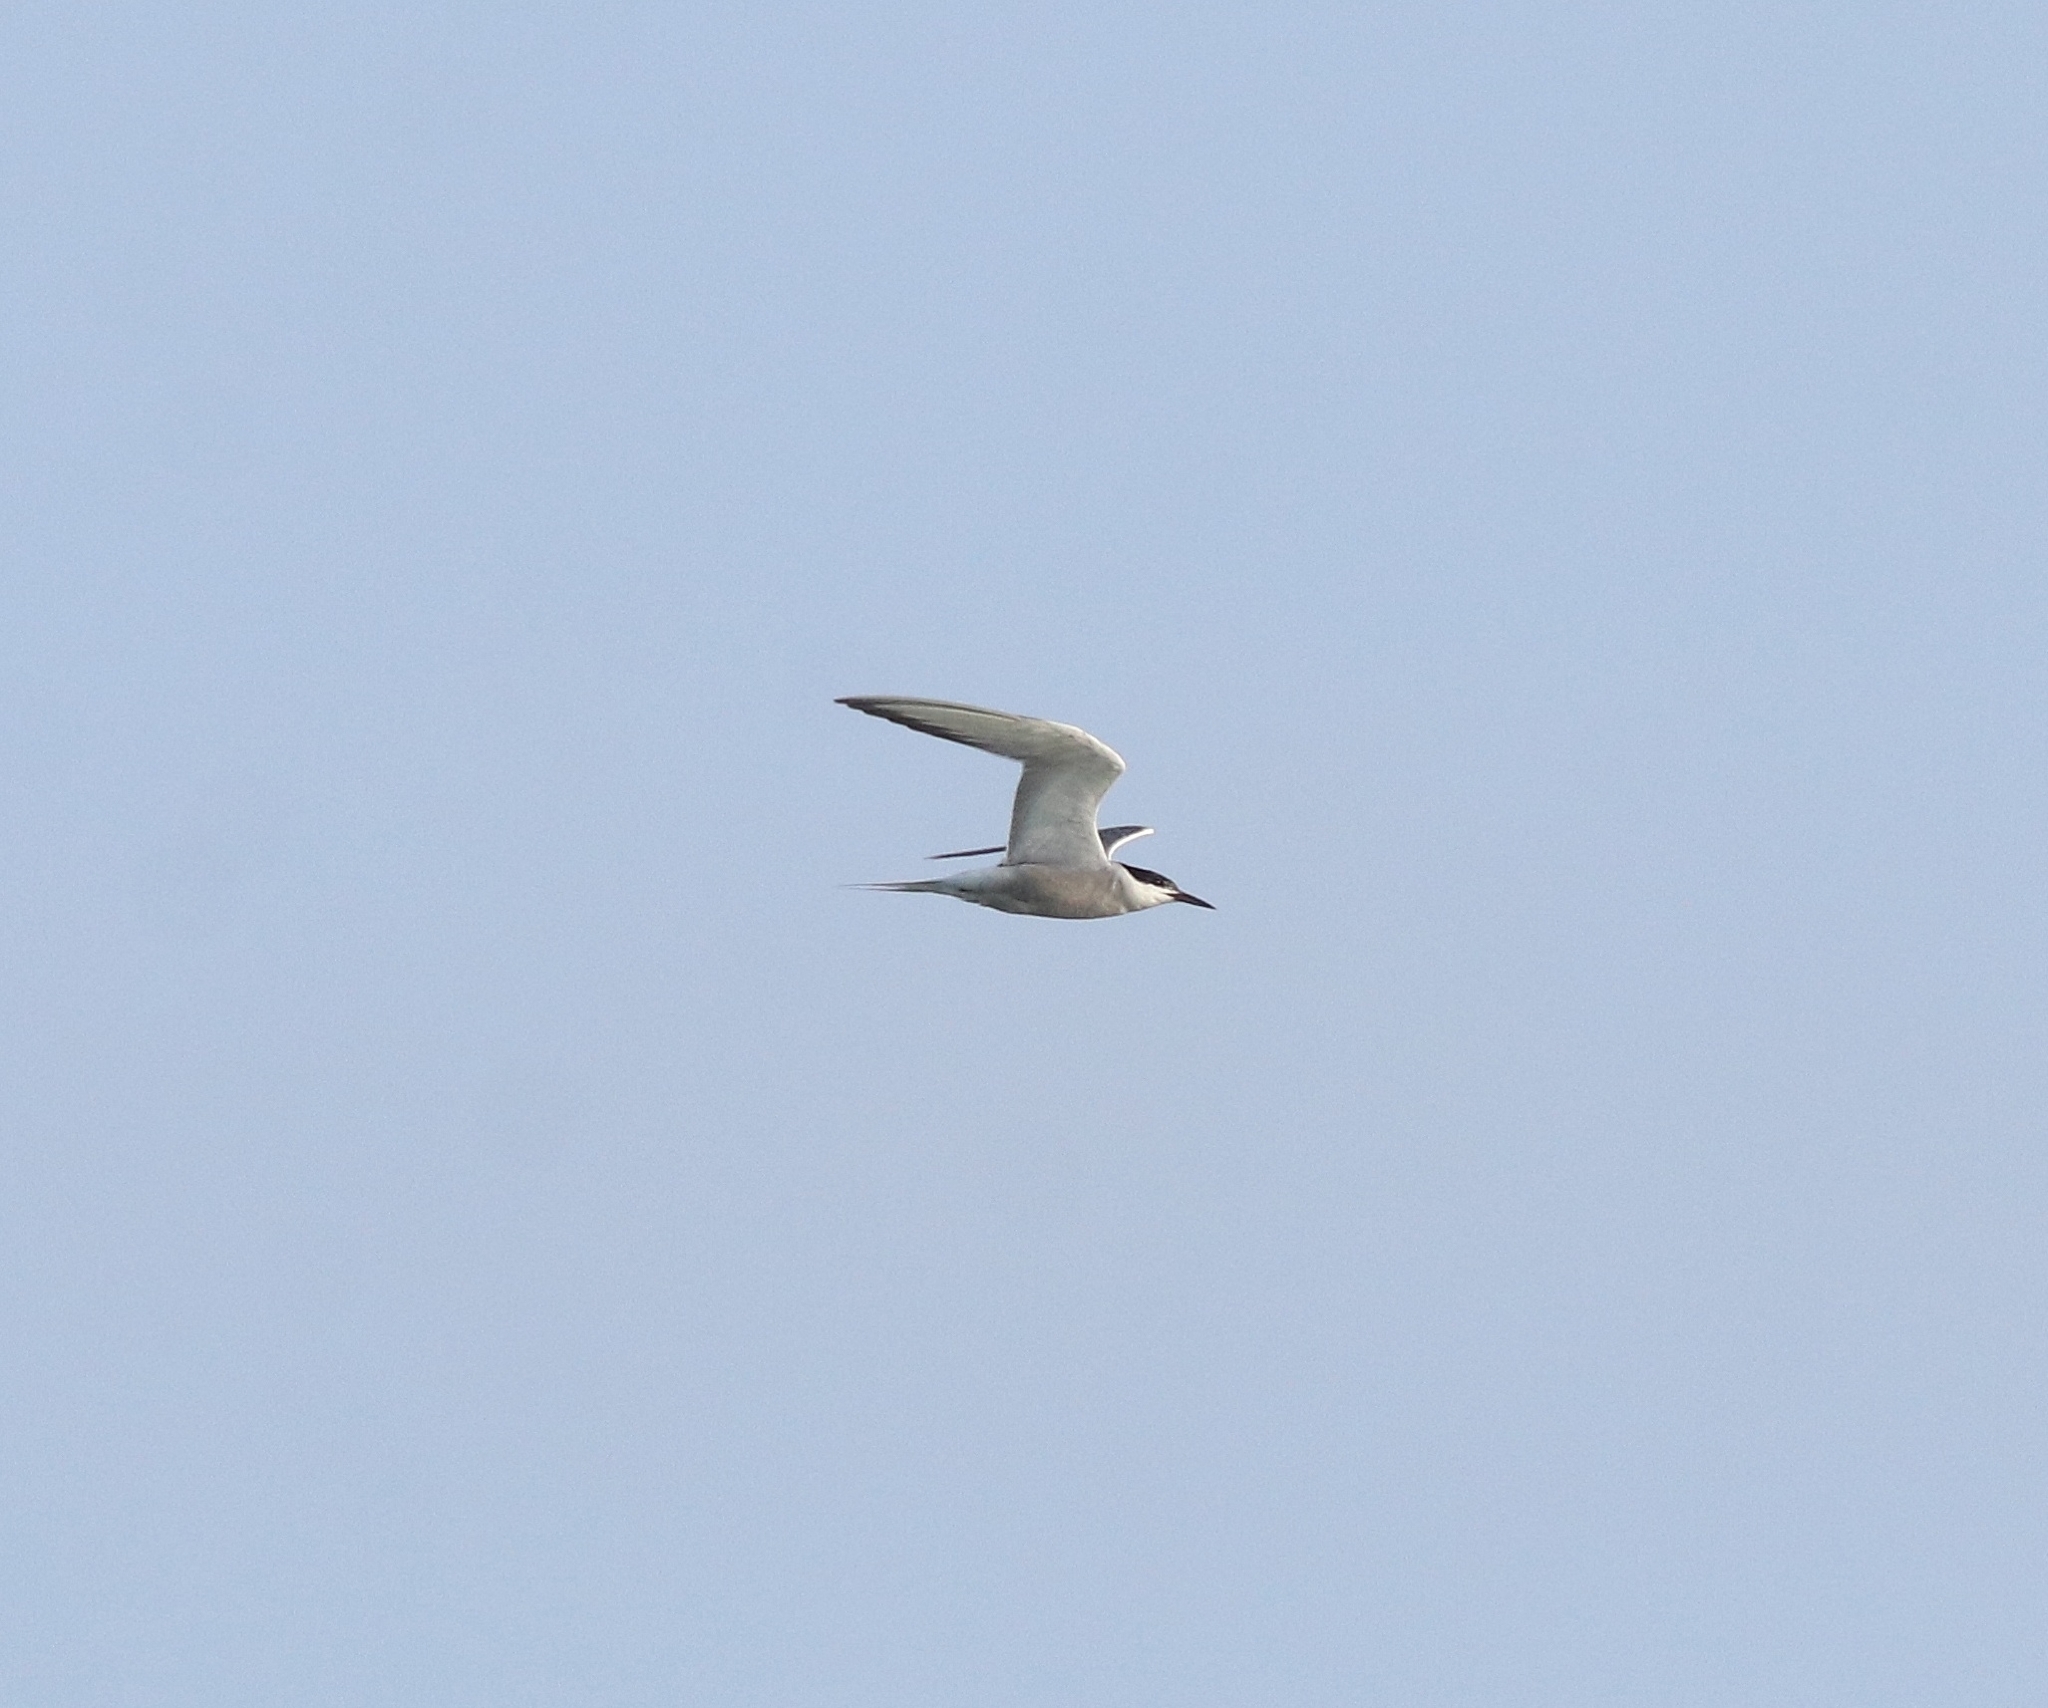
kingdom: Animalia
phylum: Chordata
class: Aves
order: Charadriiformes
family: Laridae
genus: Sterna
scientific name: Sterna hirundo
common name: Common tern
